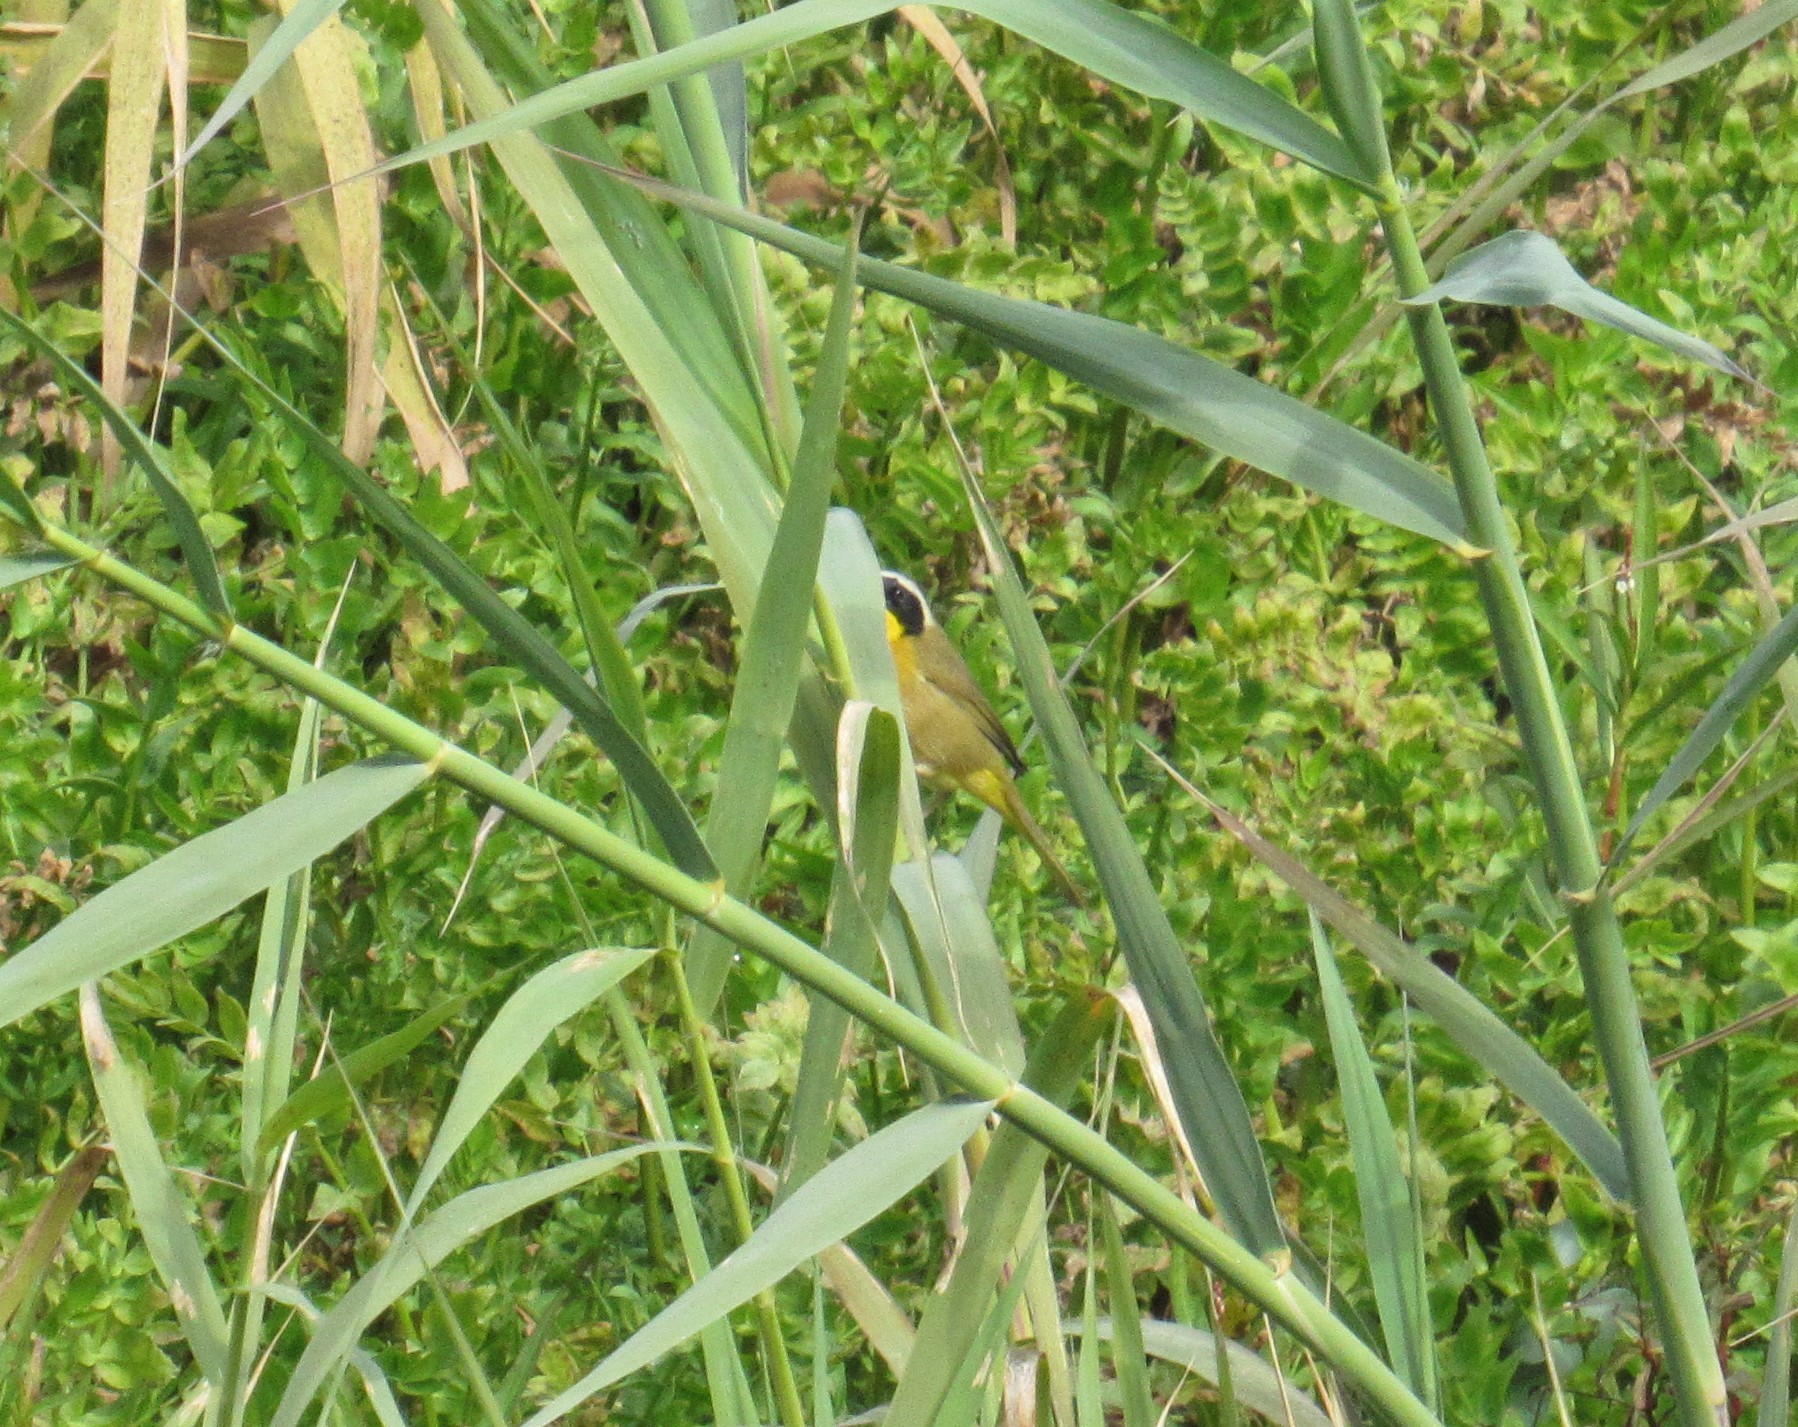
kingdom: Animalia
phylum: Chordata
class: Aves
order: Passeriformes
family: Parulidae
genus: Geothlypis
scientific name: Geothlypis trichas
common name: Common yellowthroat
